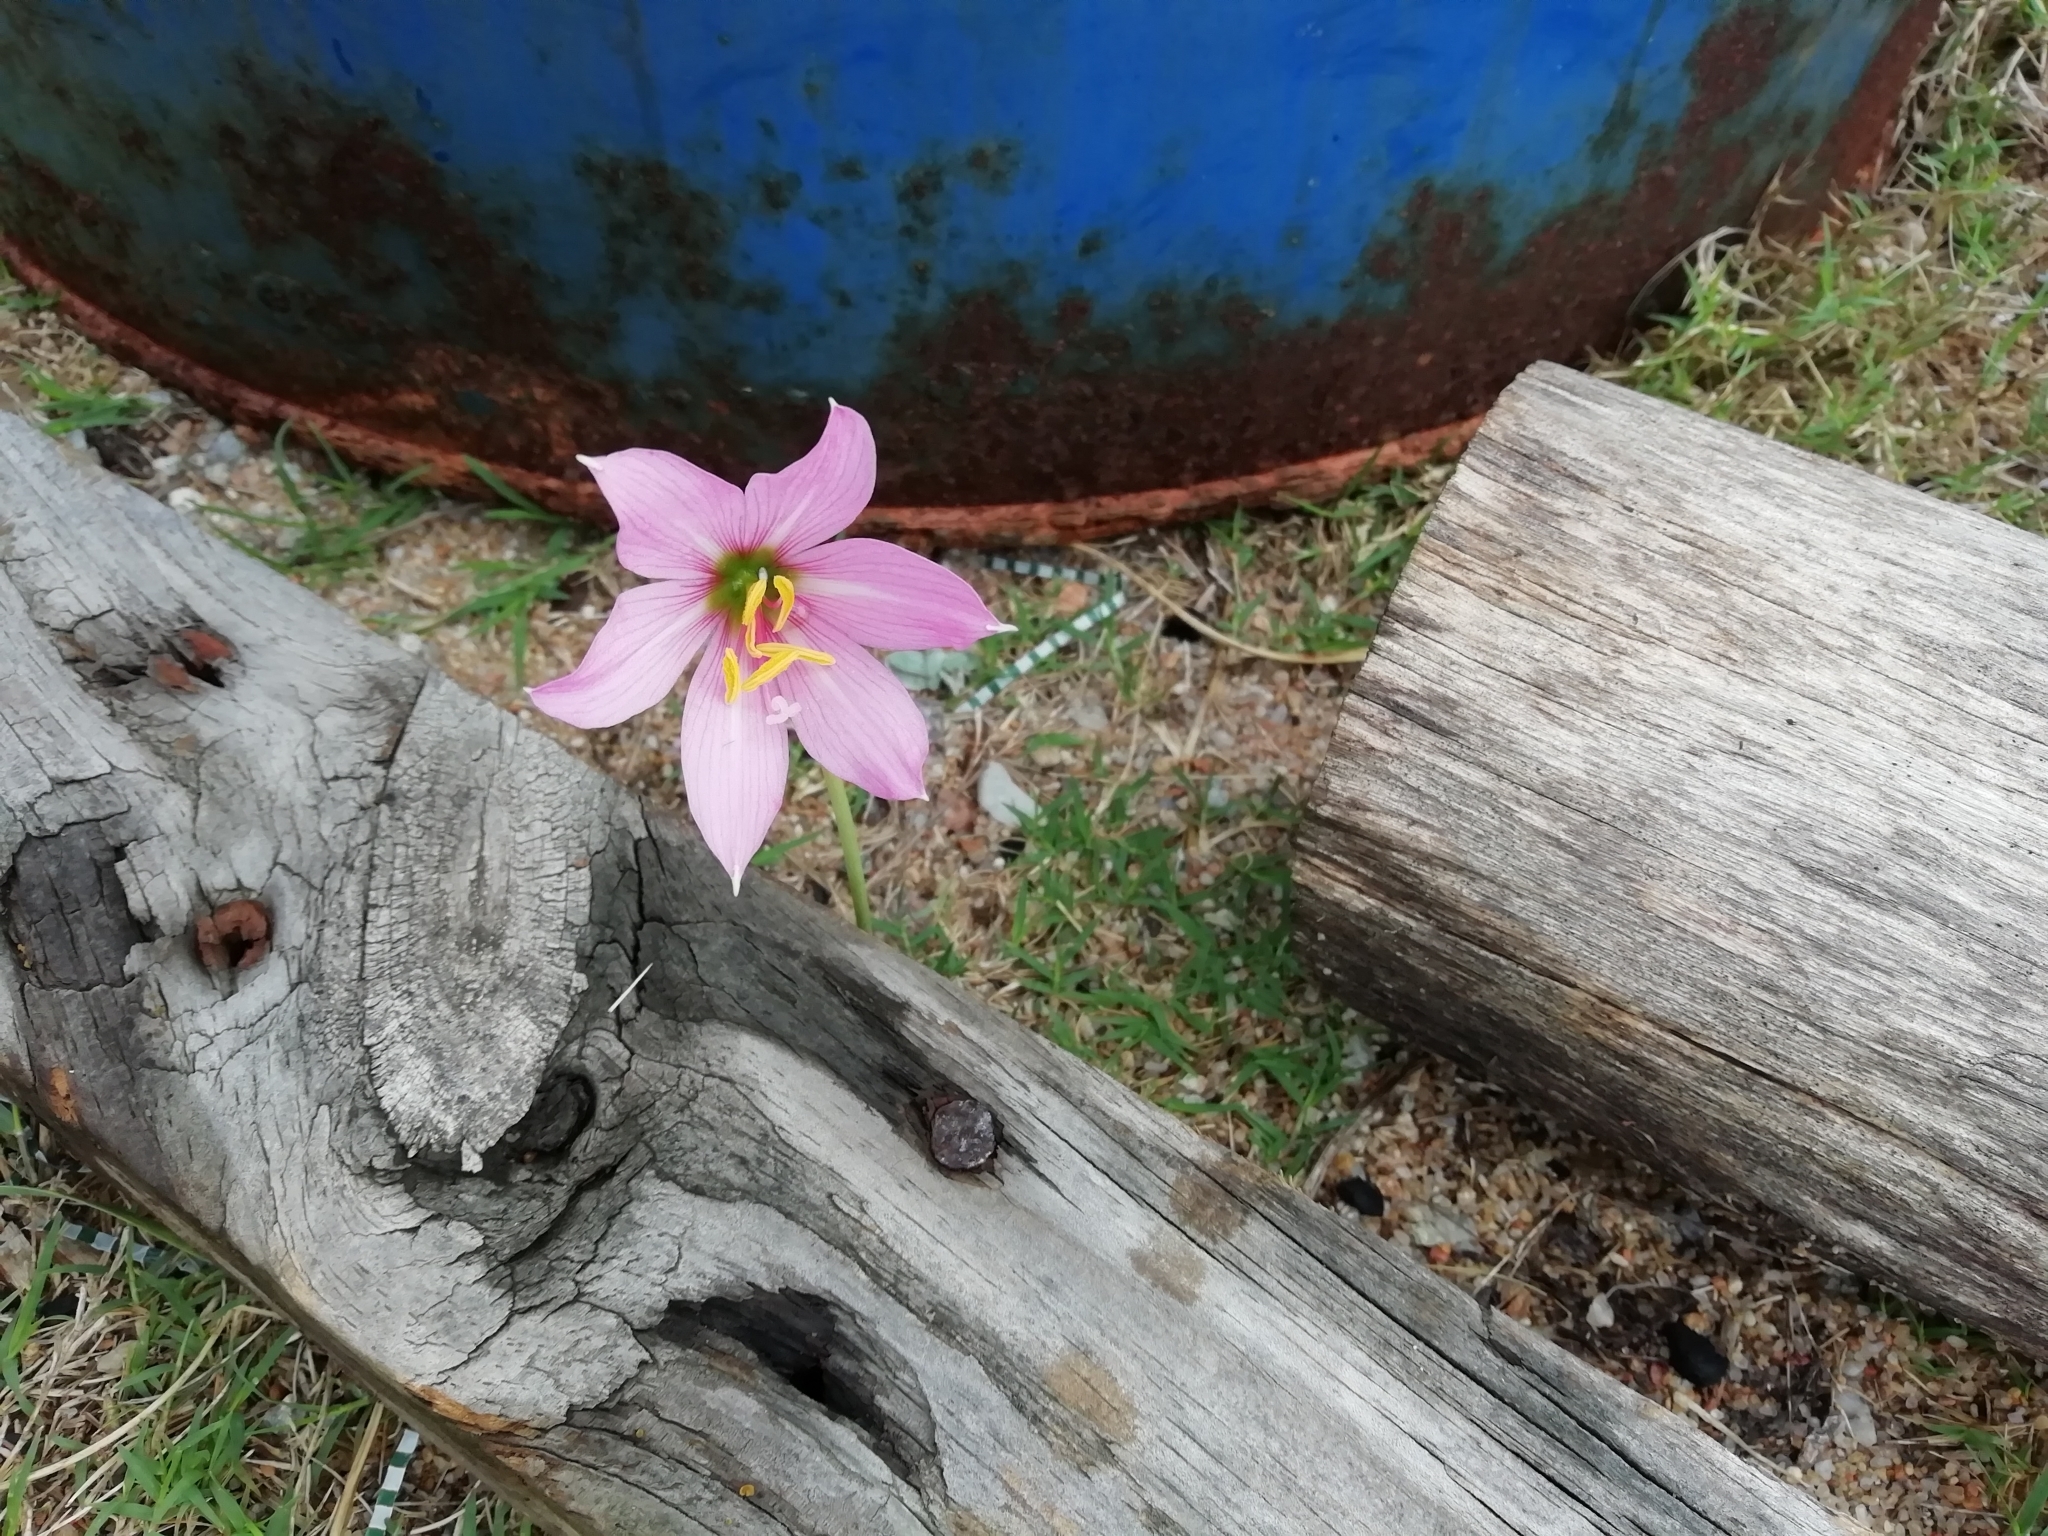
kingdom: Plantae
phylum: Tracheophyta
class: Liliopsida
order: Asparagales
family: Amaryllidaceae
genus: Zephyranthes
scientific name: Zephyranthes gracilifolia
